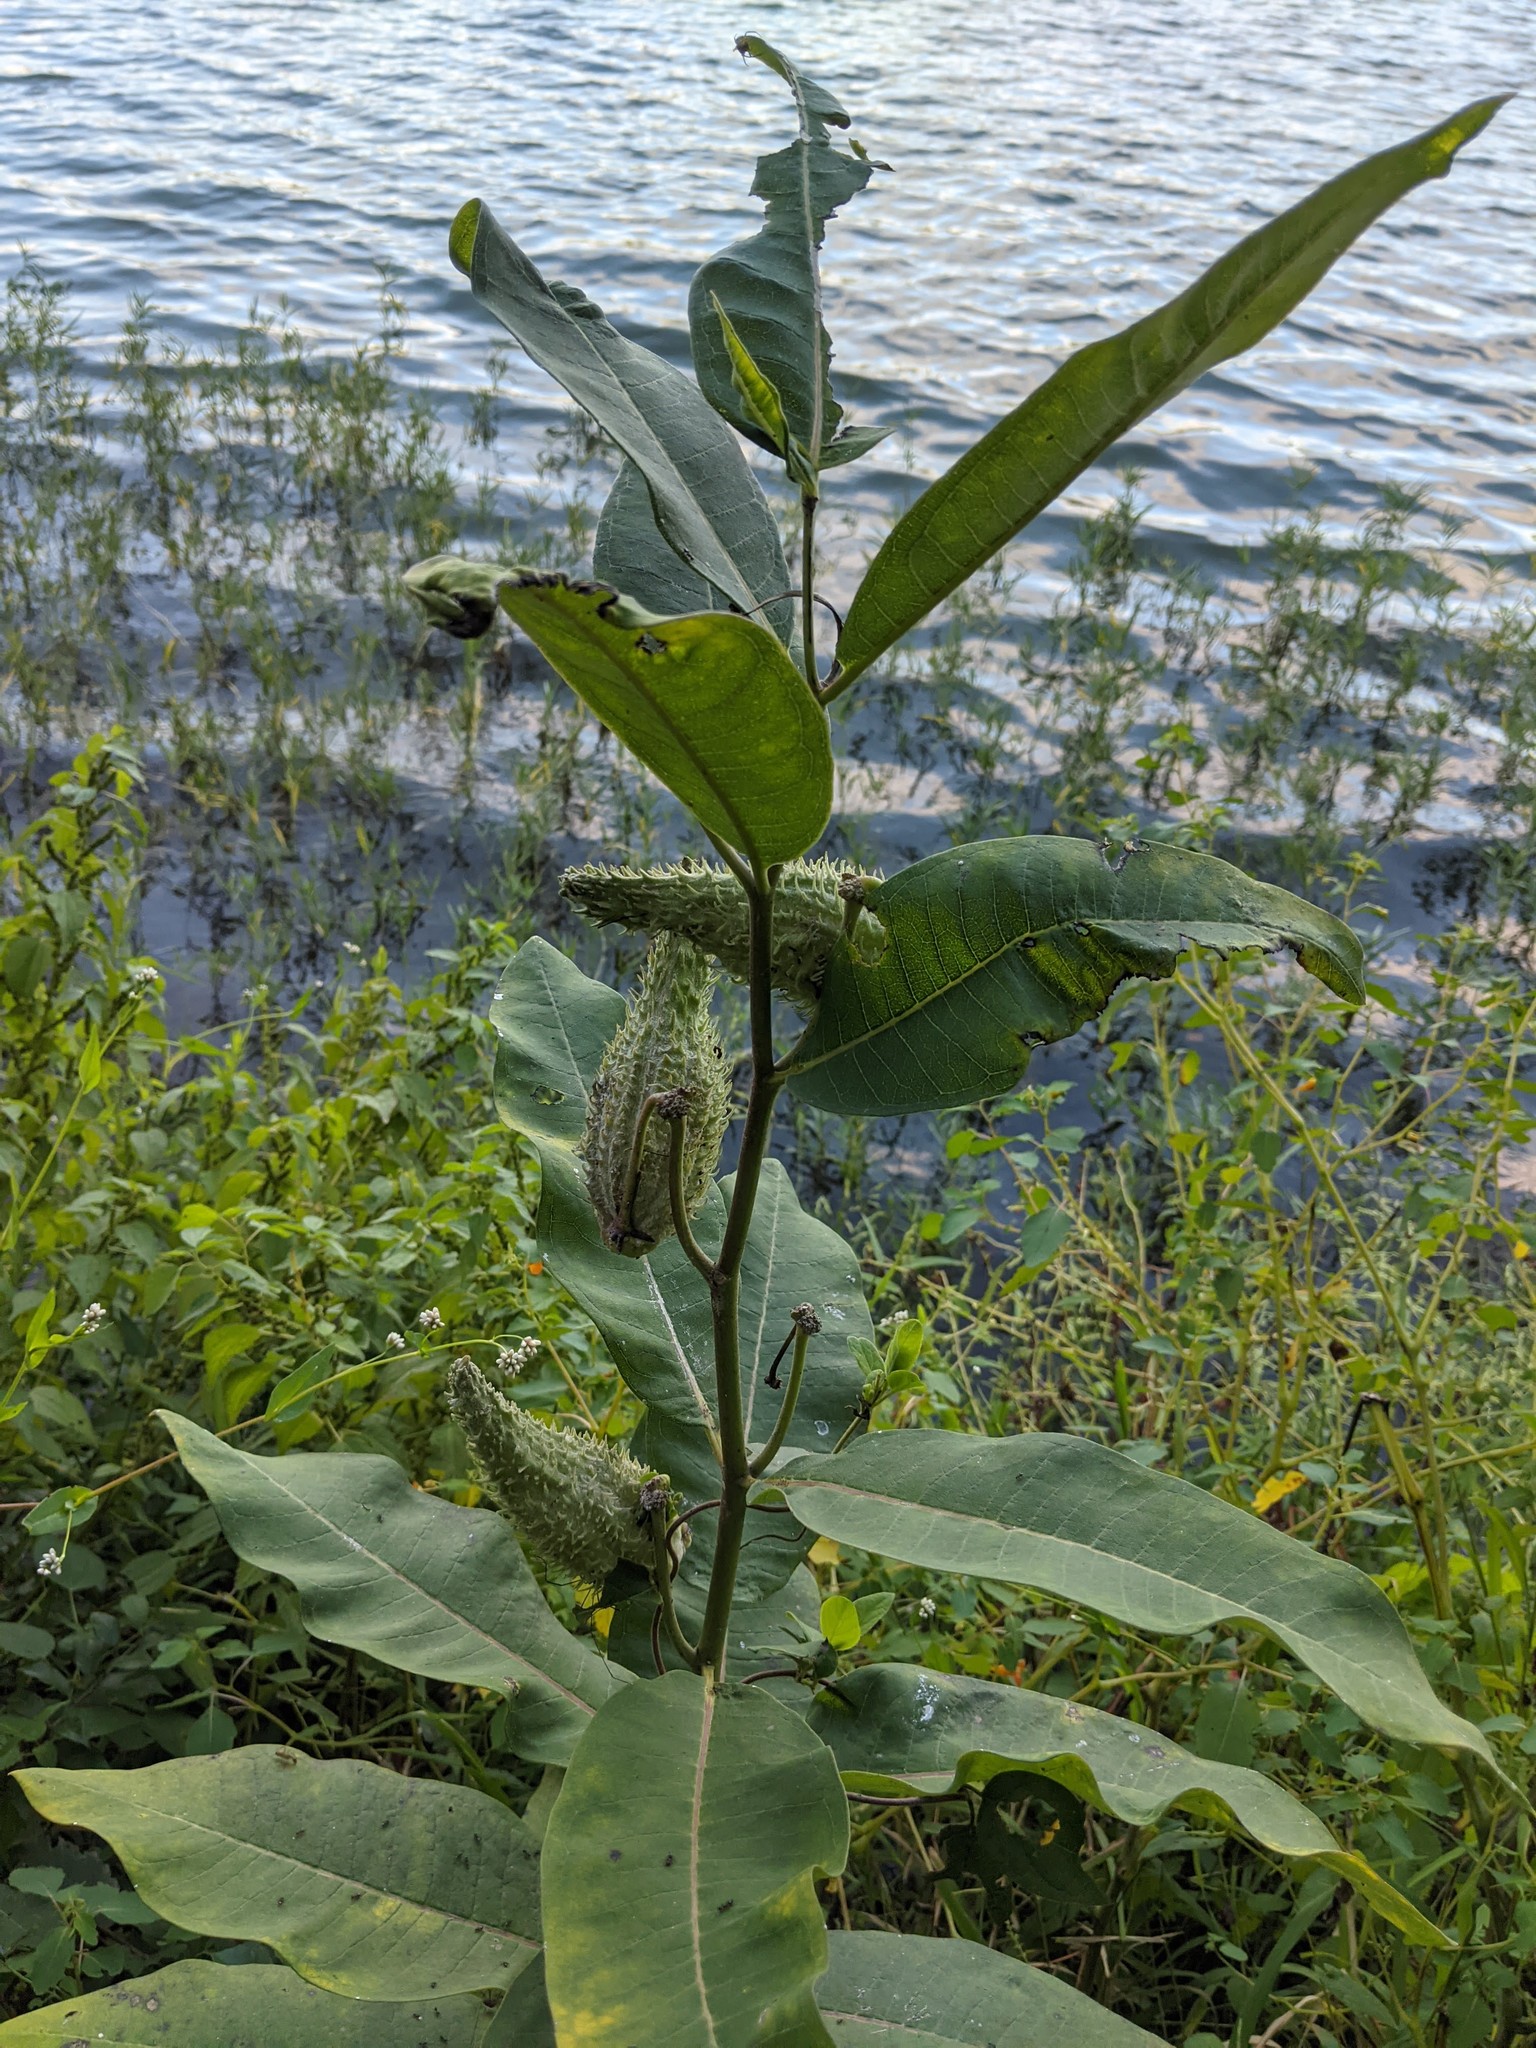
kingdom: Plantae
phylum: Tracheophyta
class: Magnoliopsida
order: Gentianales
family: Apocynaceae
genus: Asclepias
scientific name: Asclepias syriaca
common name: Common milkweed
